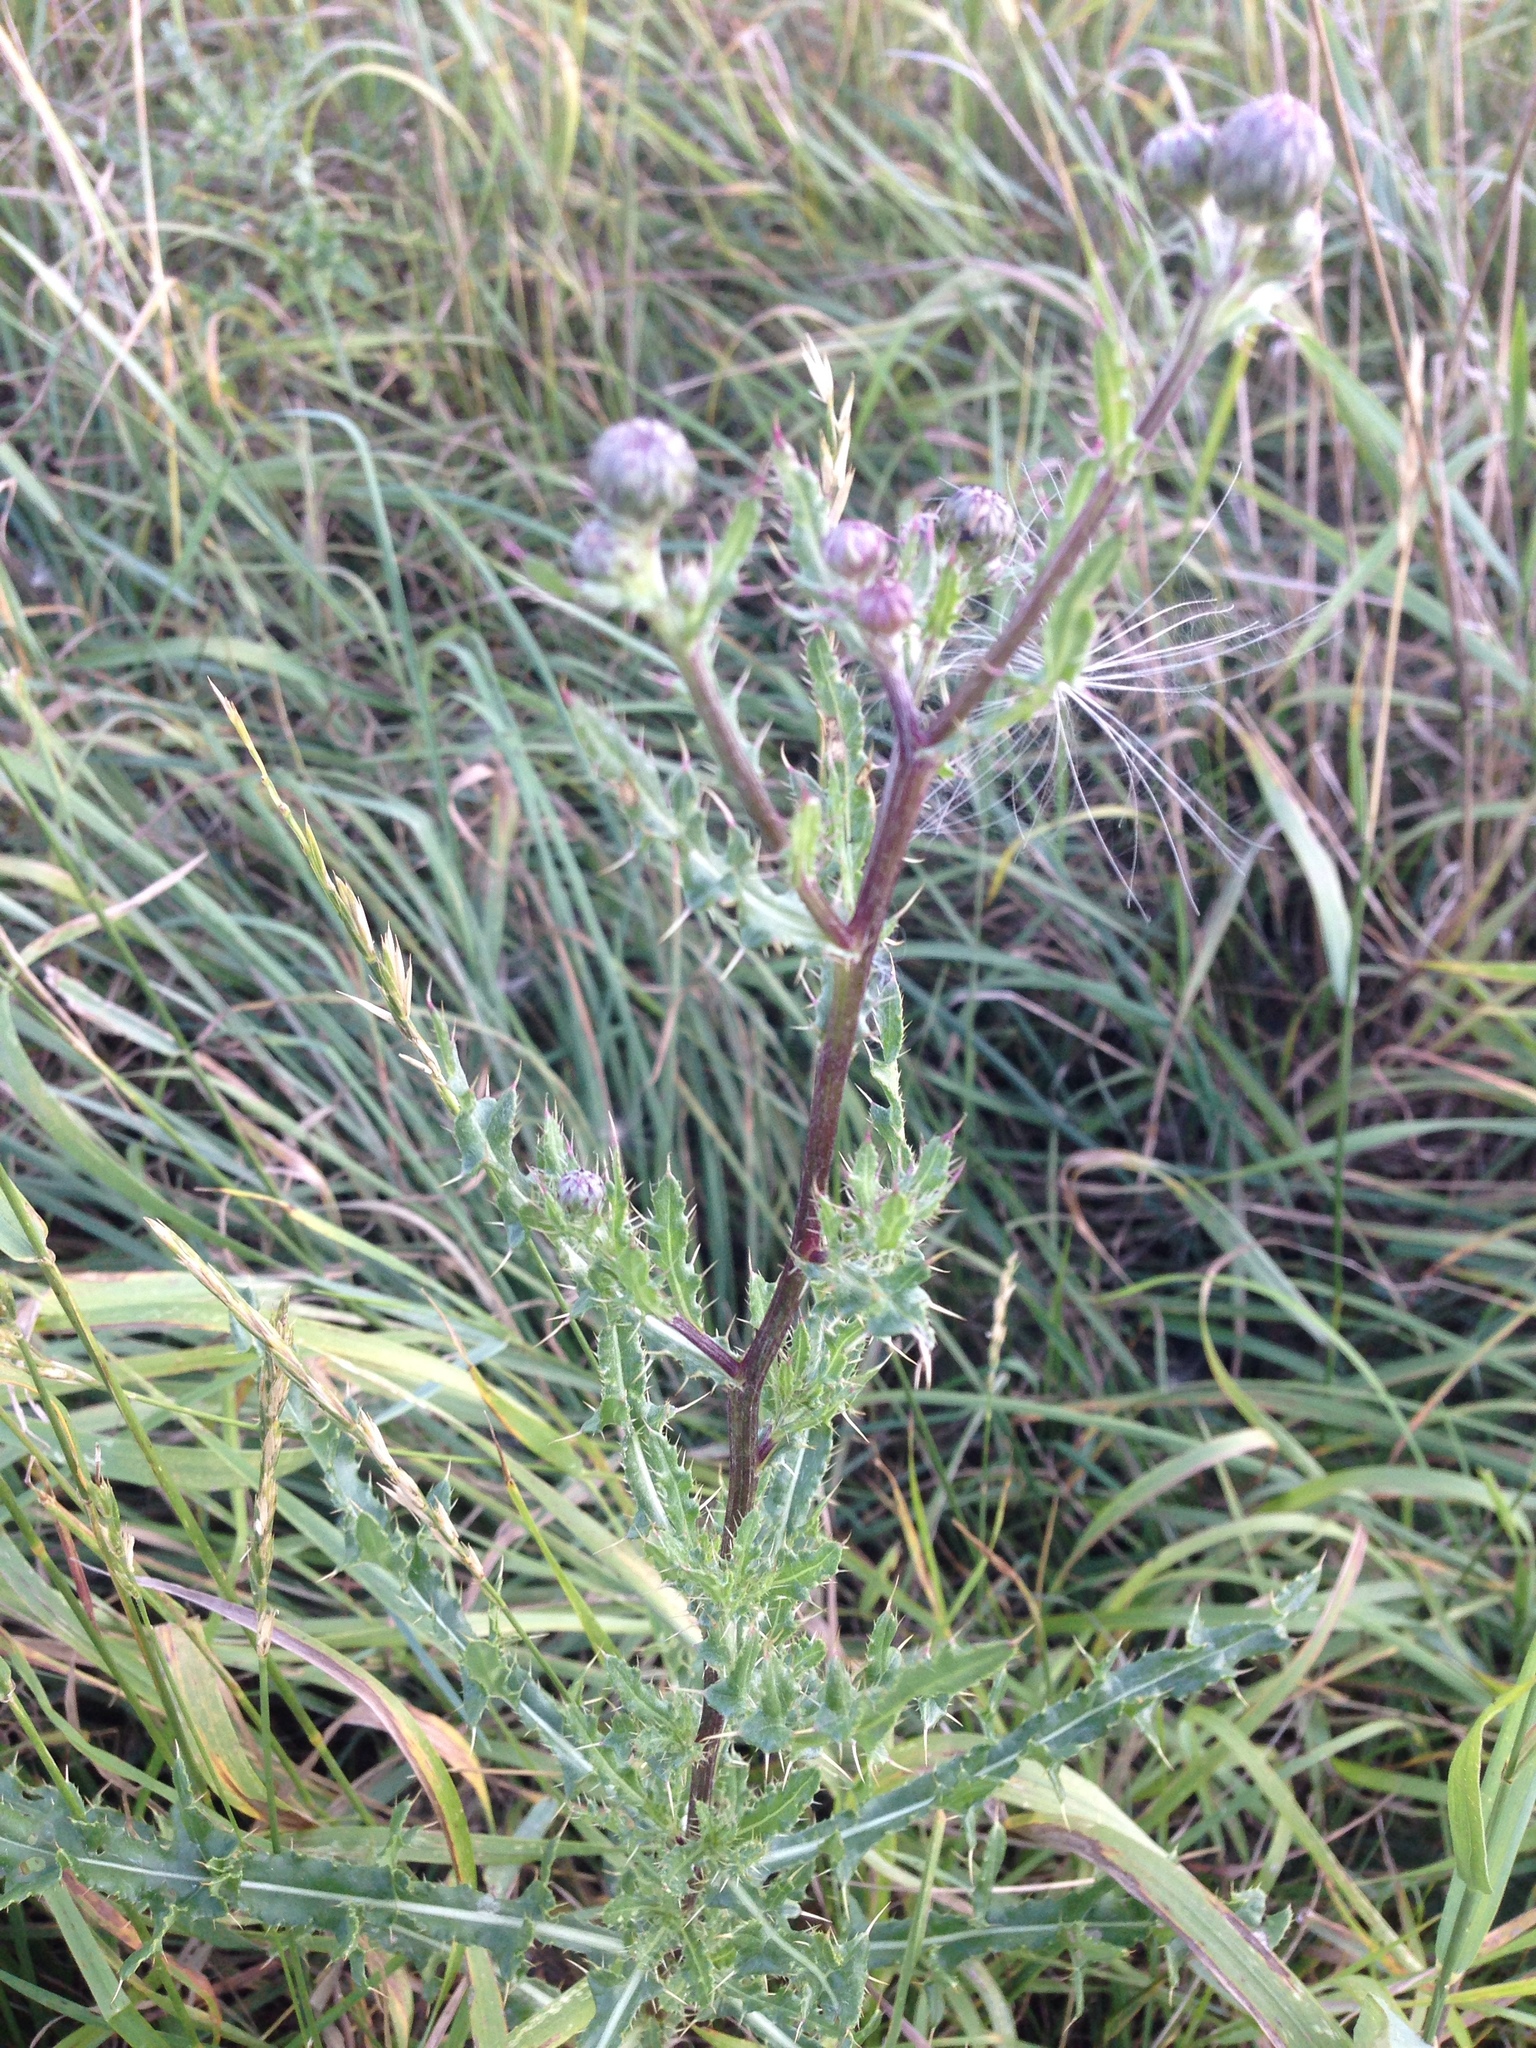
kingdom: Plantae
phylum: Tracheophyta
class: Magnoliopsida
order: Asterales
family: Asteraceae
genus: Cirsium
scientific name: Cirsium arvense
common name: Creeping thistle
